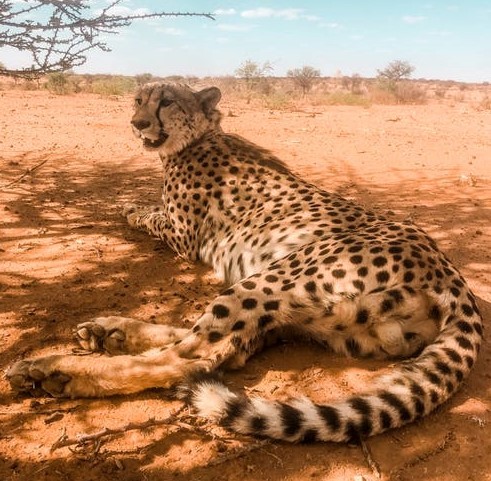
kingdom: Animalia
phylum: Chordata
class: Mammalia
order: Carnivora
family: Felidae
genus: Acinonyx
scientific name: Acinonyx jubatus
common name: Cheetah
